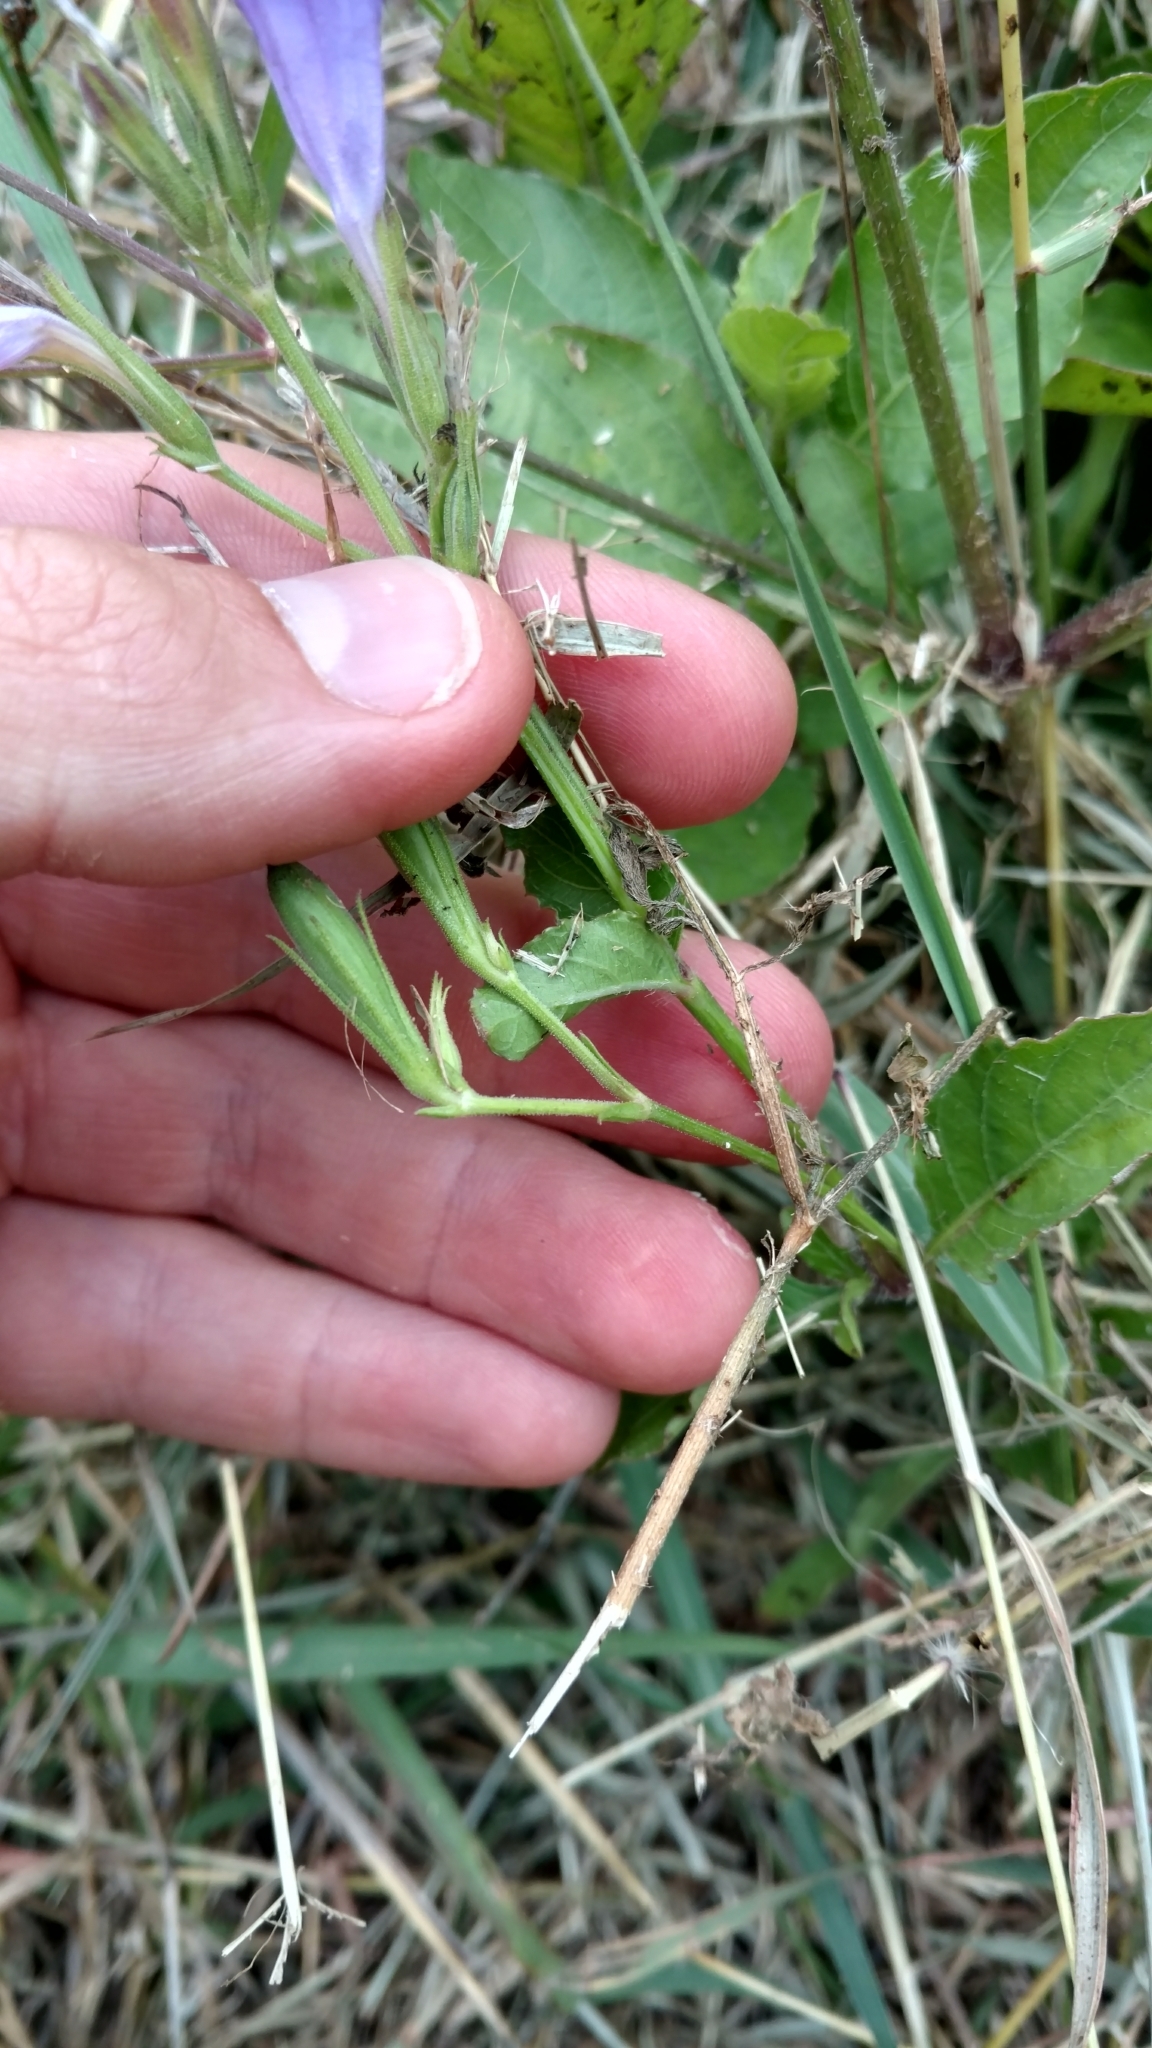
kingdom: Plantae
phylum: Tracheophyta
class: Magnoliopsida
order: Lamiales
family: Acanthaceae
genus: Ruellia
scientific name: Ruellia ciliatiflora
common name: Hairyflower wild petunia
